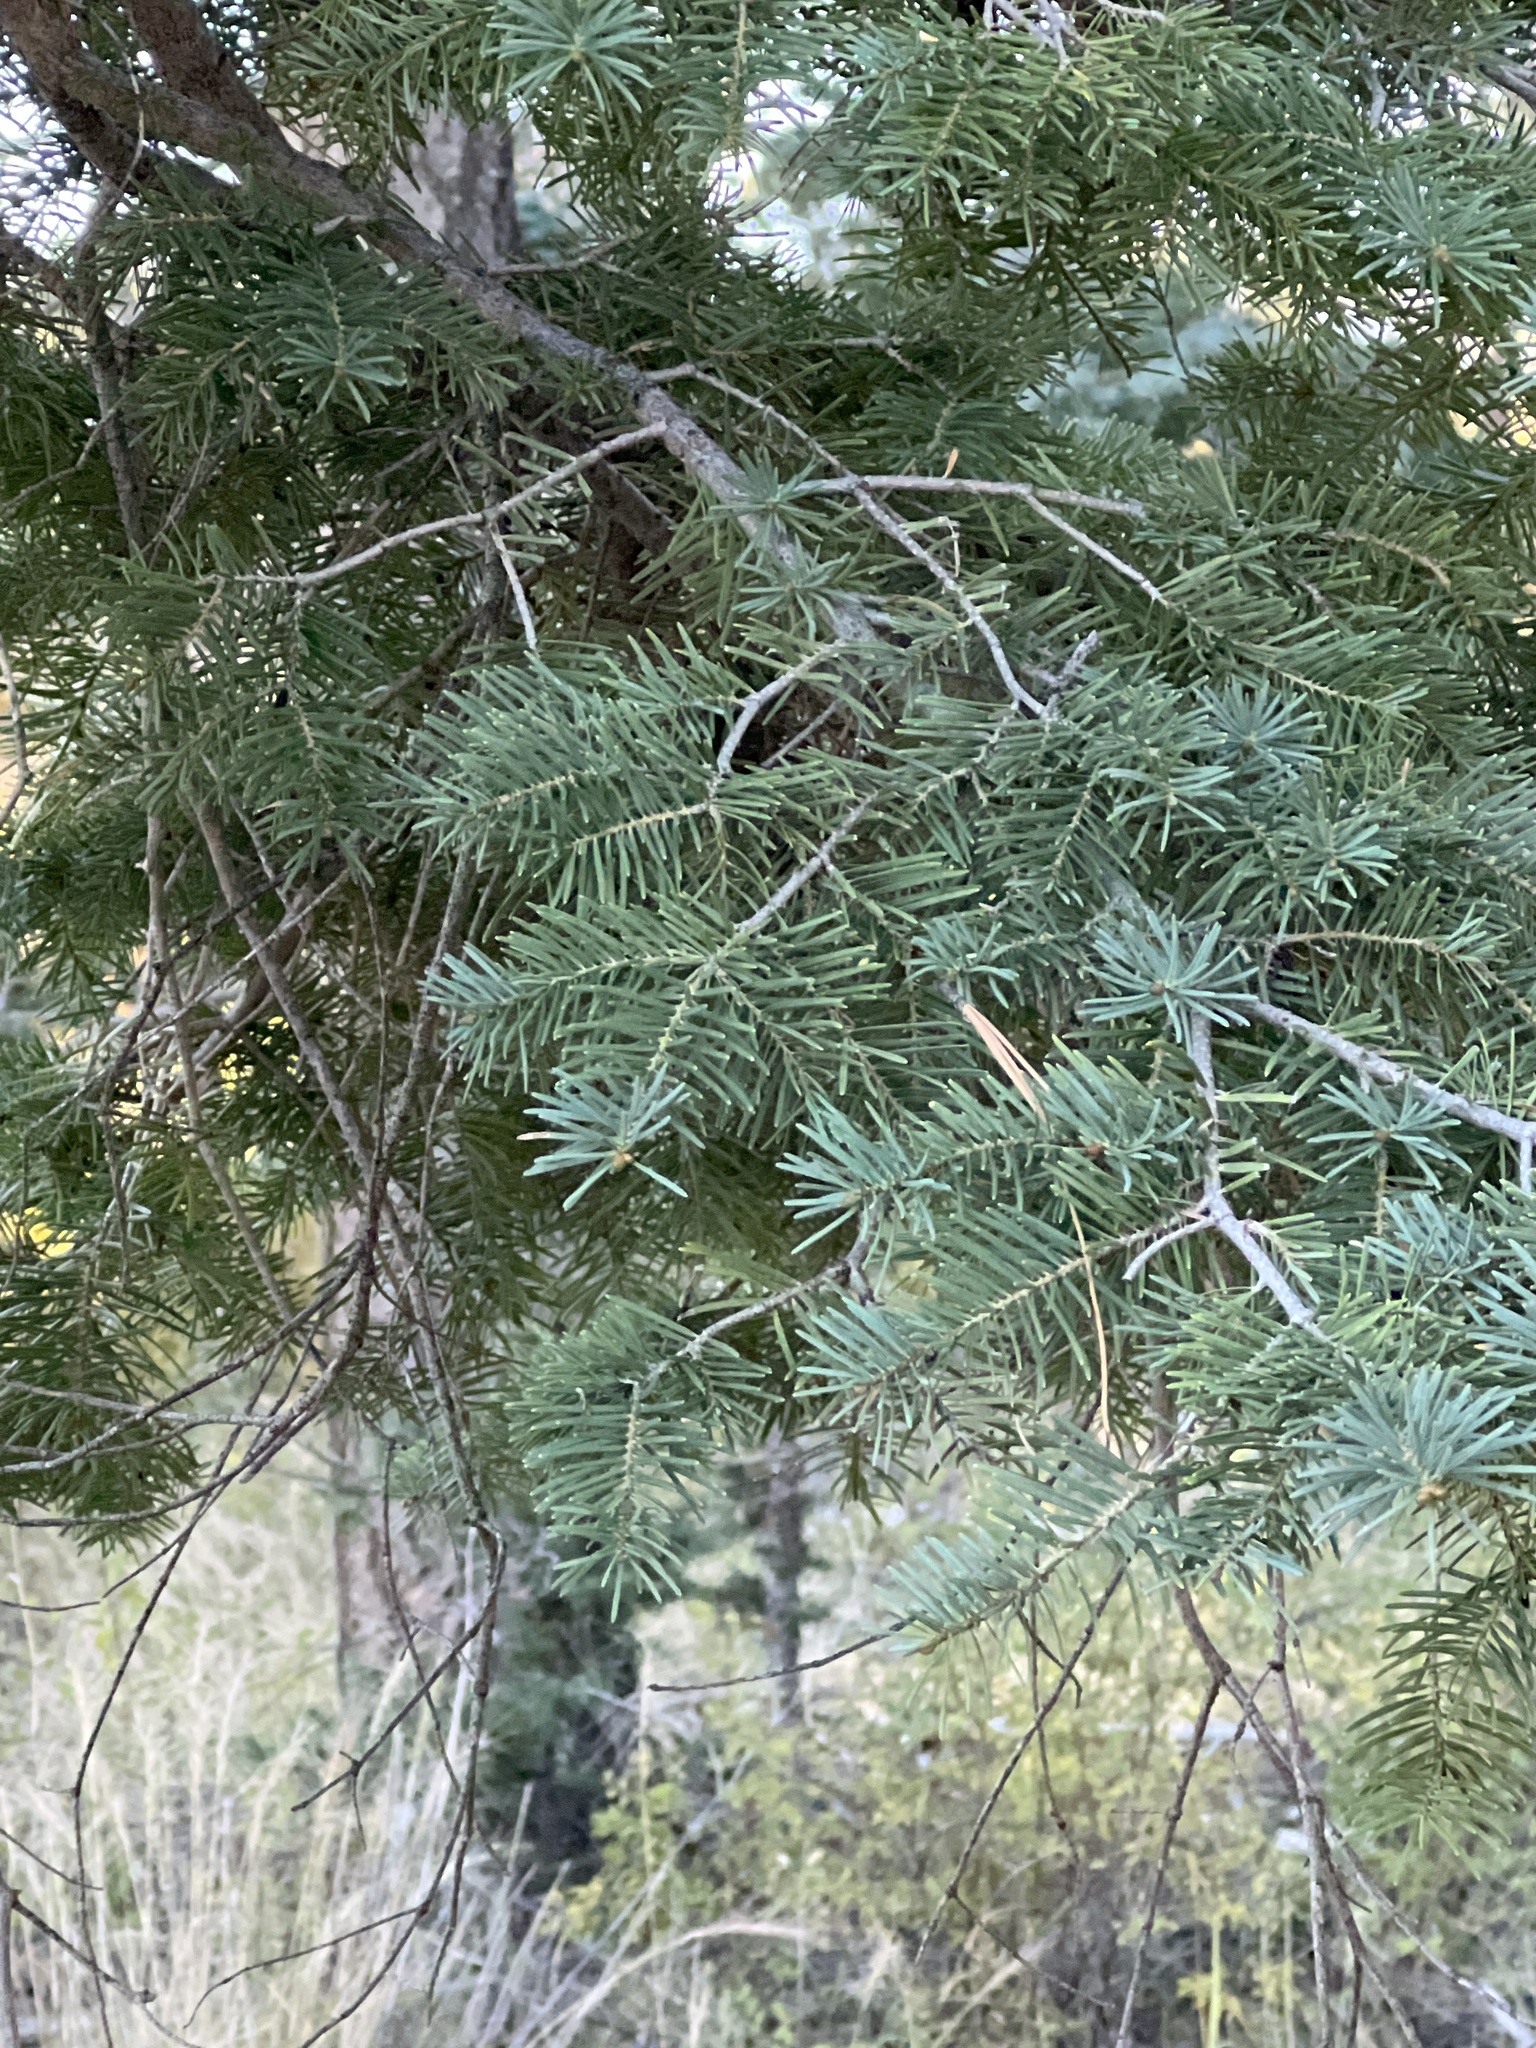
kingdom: Plantae
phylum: Tracheophyta
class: Pinopsida
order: Pinales
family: Pinaceae
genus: Abies
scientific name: Abies concolor
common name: Colorado fir
